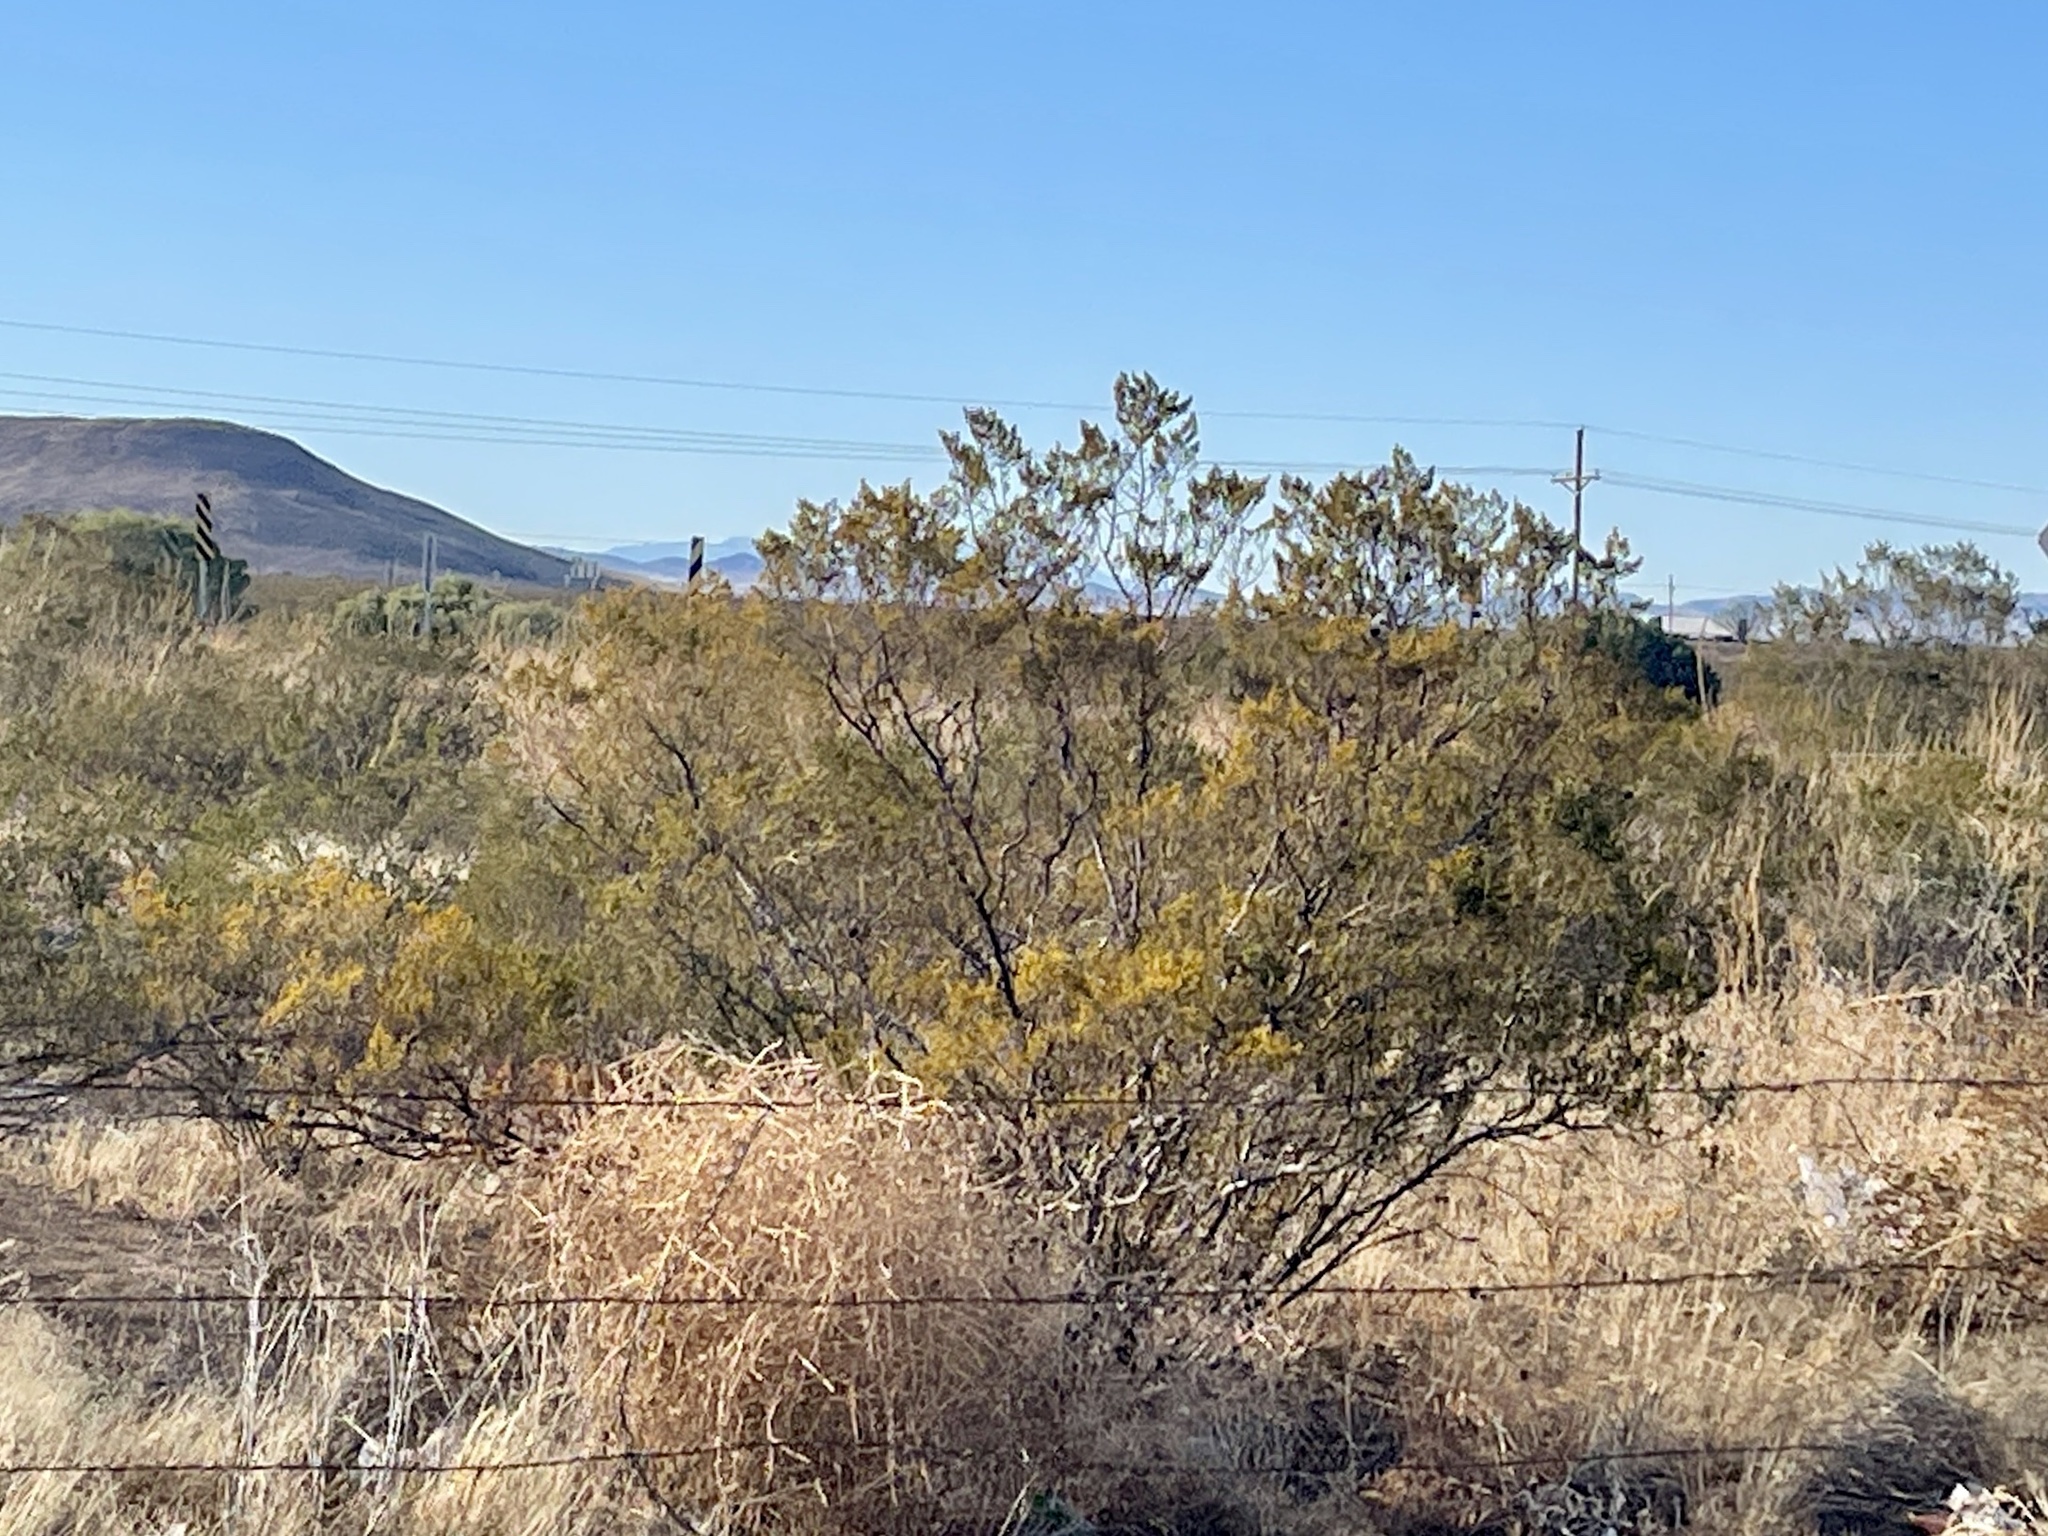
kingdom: Plantae
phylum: Tracheophyta
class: Magnoliopsida
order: Zygophyllales
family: Zygophyllaceae
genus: Larrea
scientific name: Larrea tridentata
